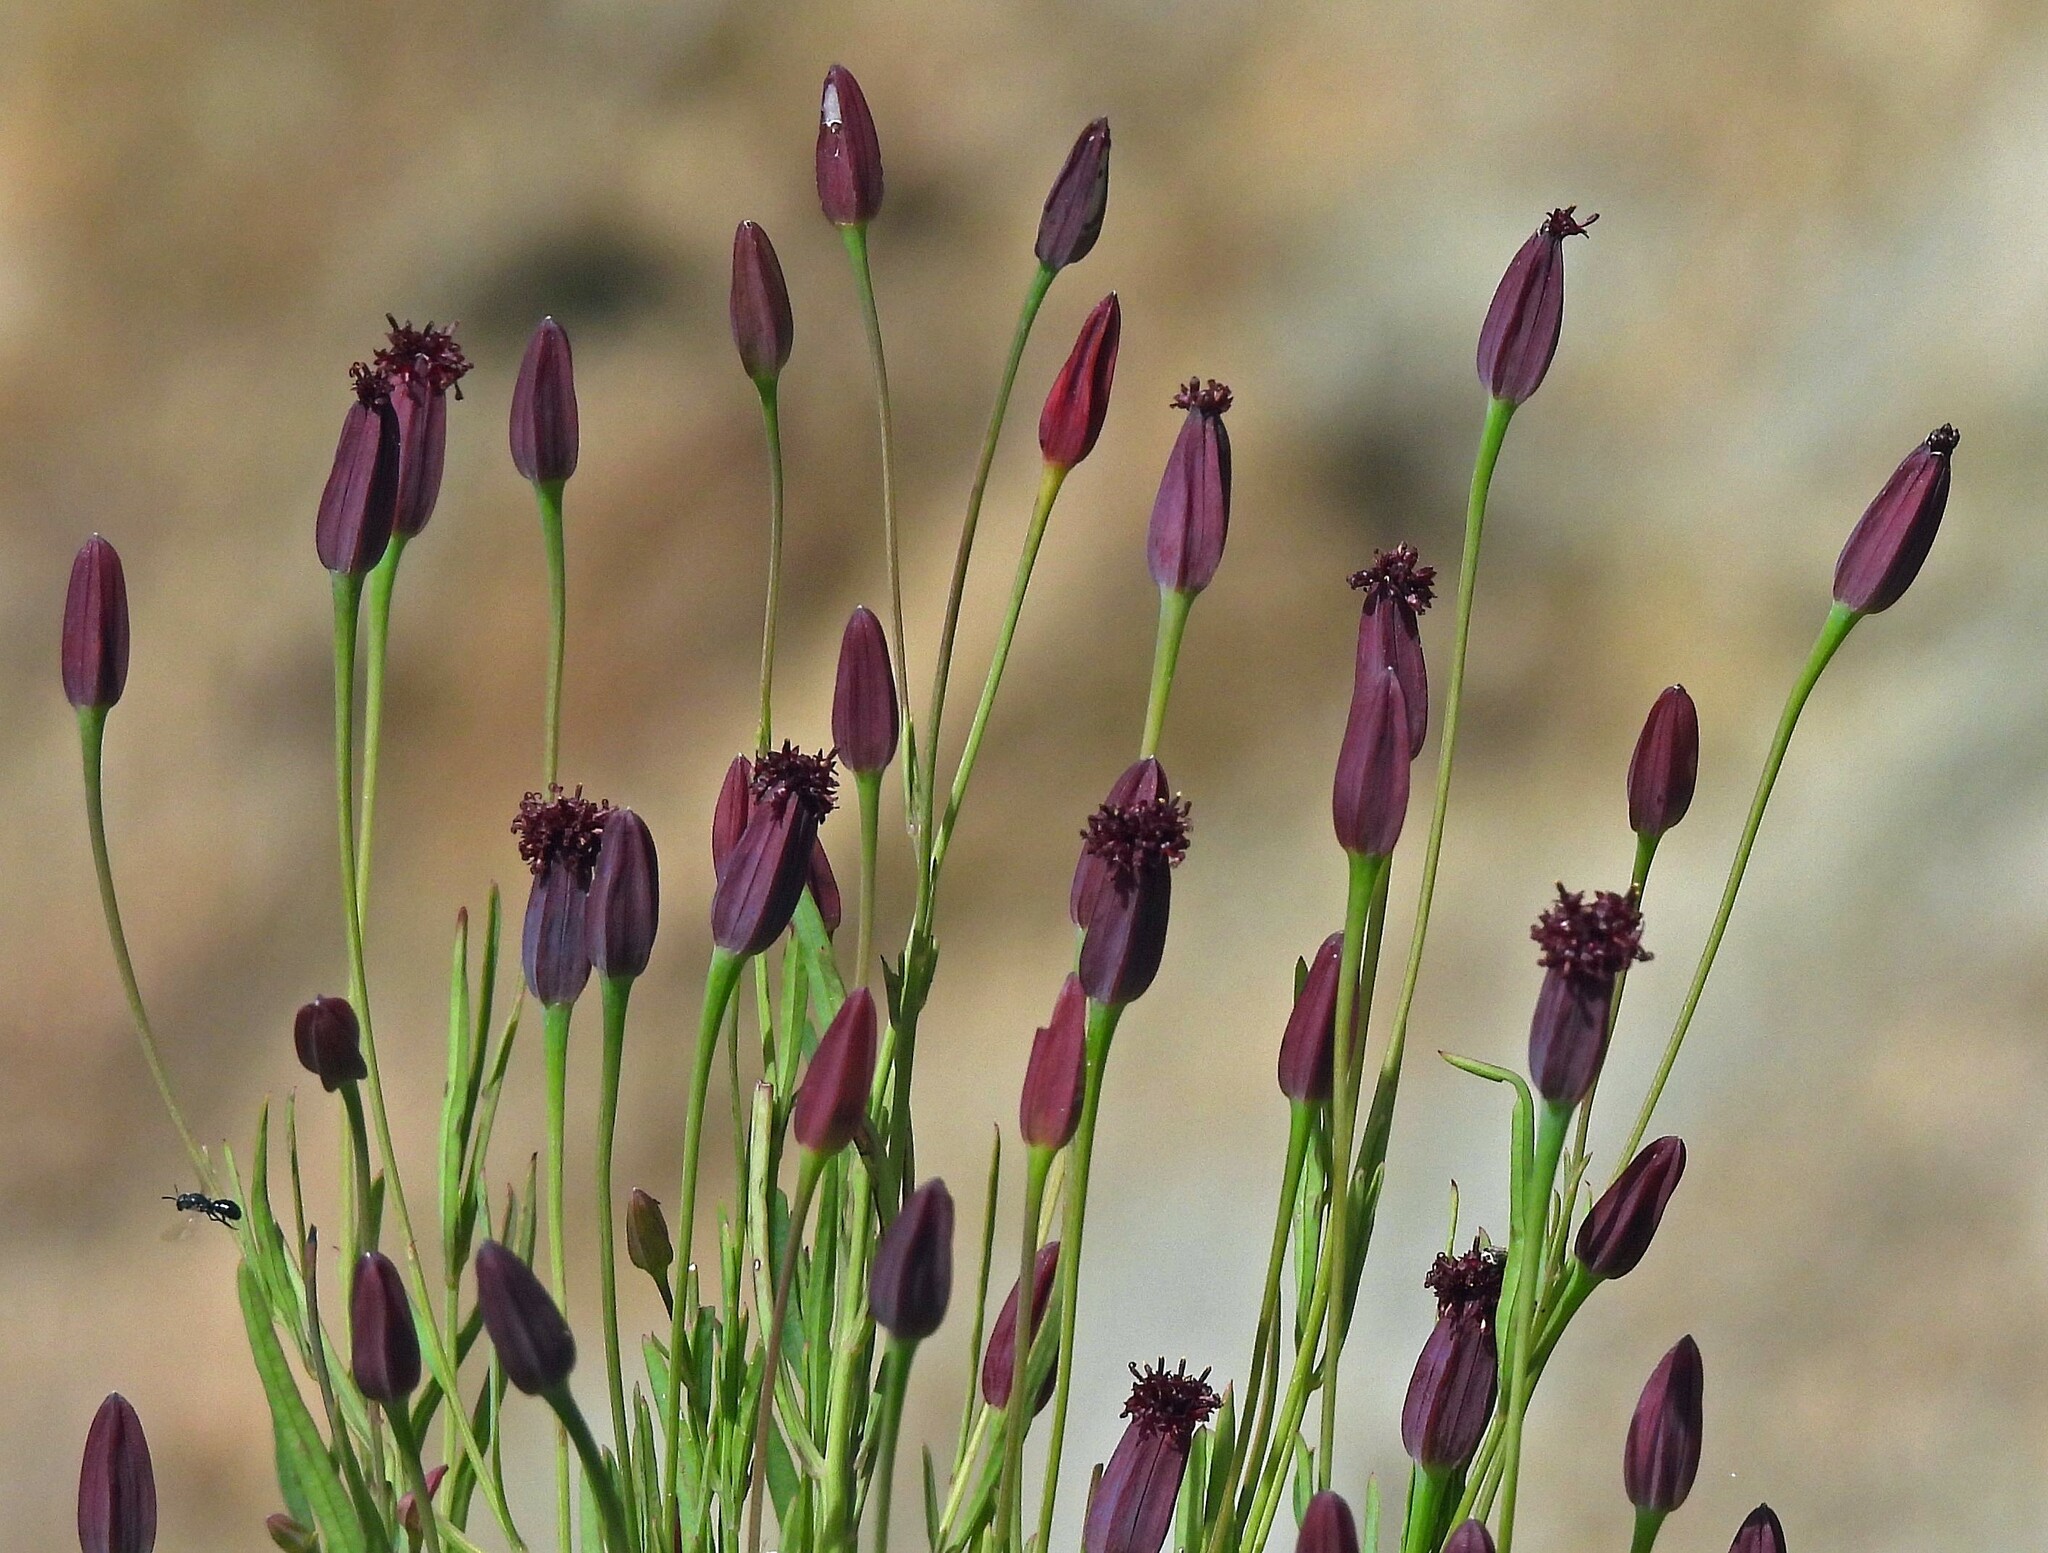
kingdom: Plantae
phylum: Tracheophyta
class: Magnoliopsida
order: Asterales
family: Asteraceae
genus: Porophyllum
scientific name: Porophyllum
